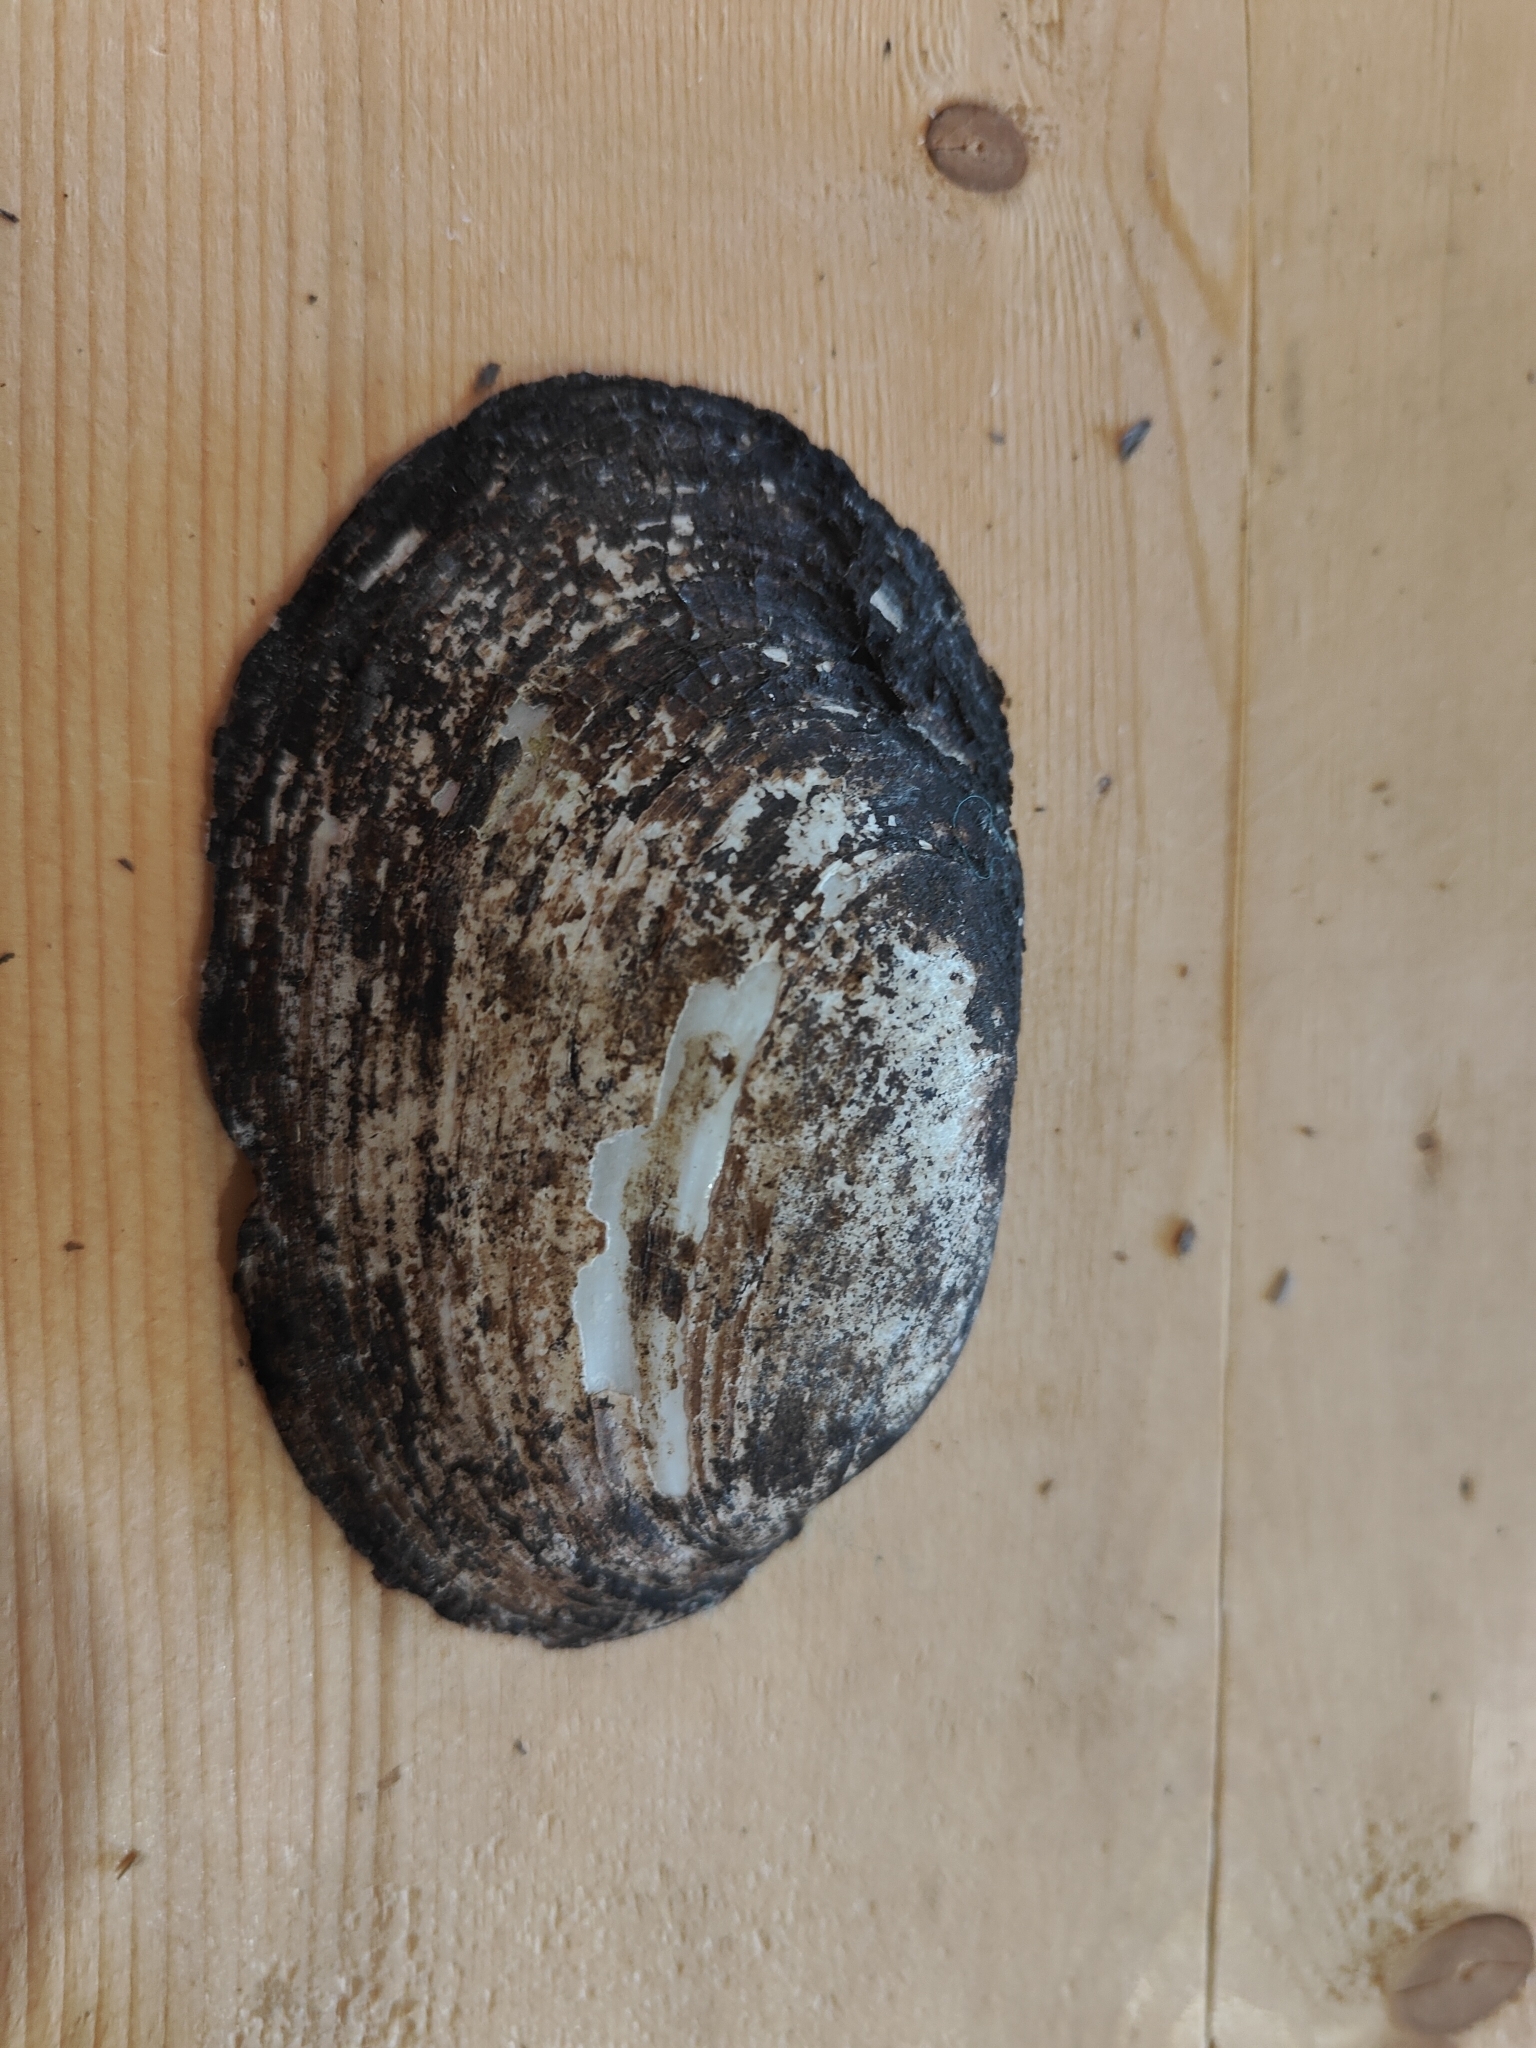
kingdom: Animalia
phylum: Mollusca
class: Bivalvia
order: Unionida
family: Unionidae
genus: Potamilus
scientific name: Potamilus fragilis
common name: Fragile papershell
